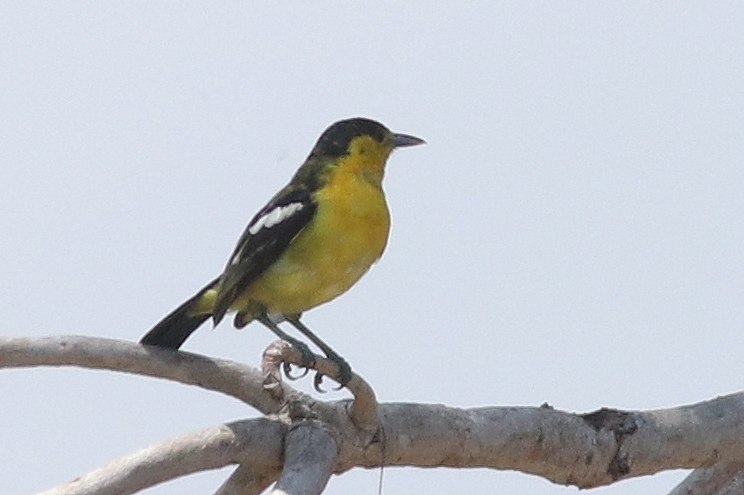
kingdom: Animalia
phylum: Chordata
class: Aves
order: Passeriformes
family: Aegithinidae
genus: Aegithina
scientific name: Aegithina tiphia
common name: Common iora
